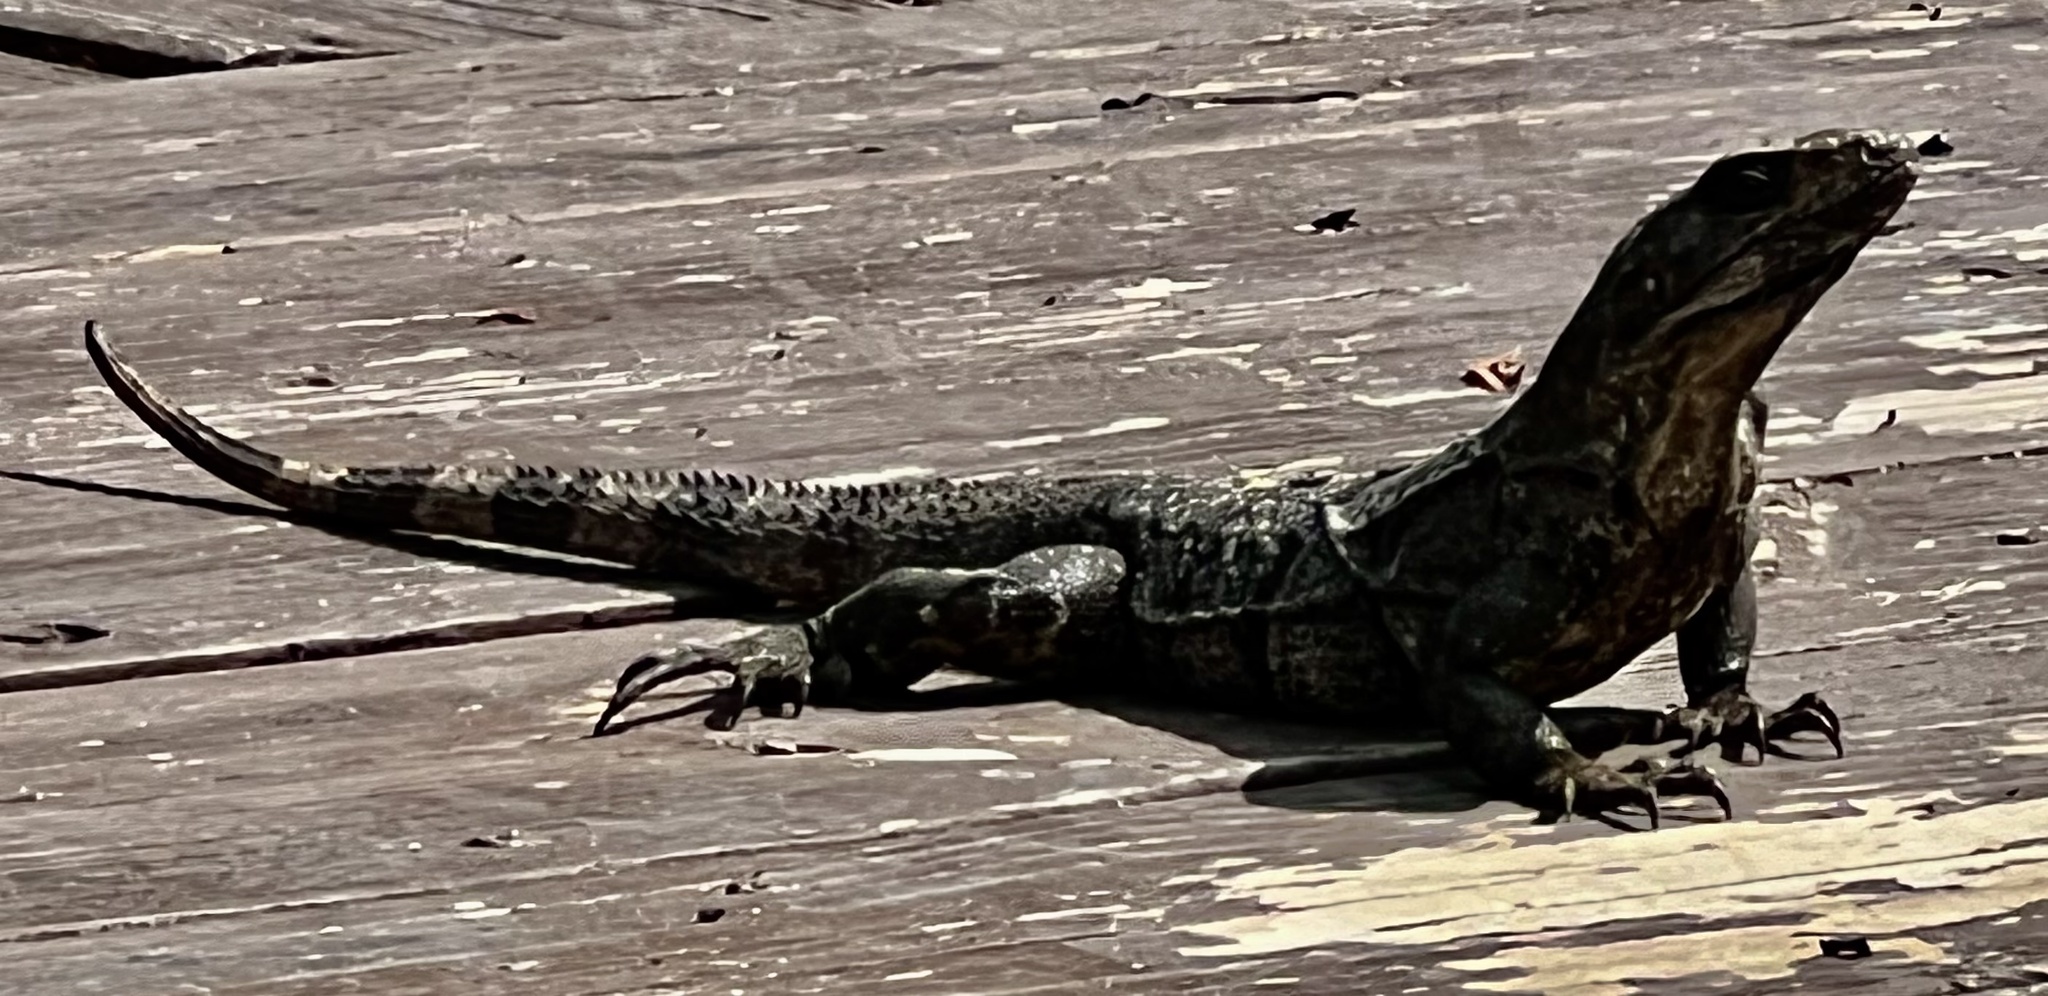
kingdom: Animalia
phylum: Chordata
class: Squamata
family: Iguanidae
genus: Ctenosaura
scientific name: Ctenosaura similis
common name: Black spiny-tailed iguana
